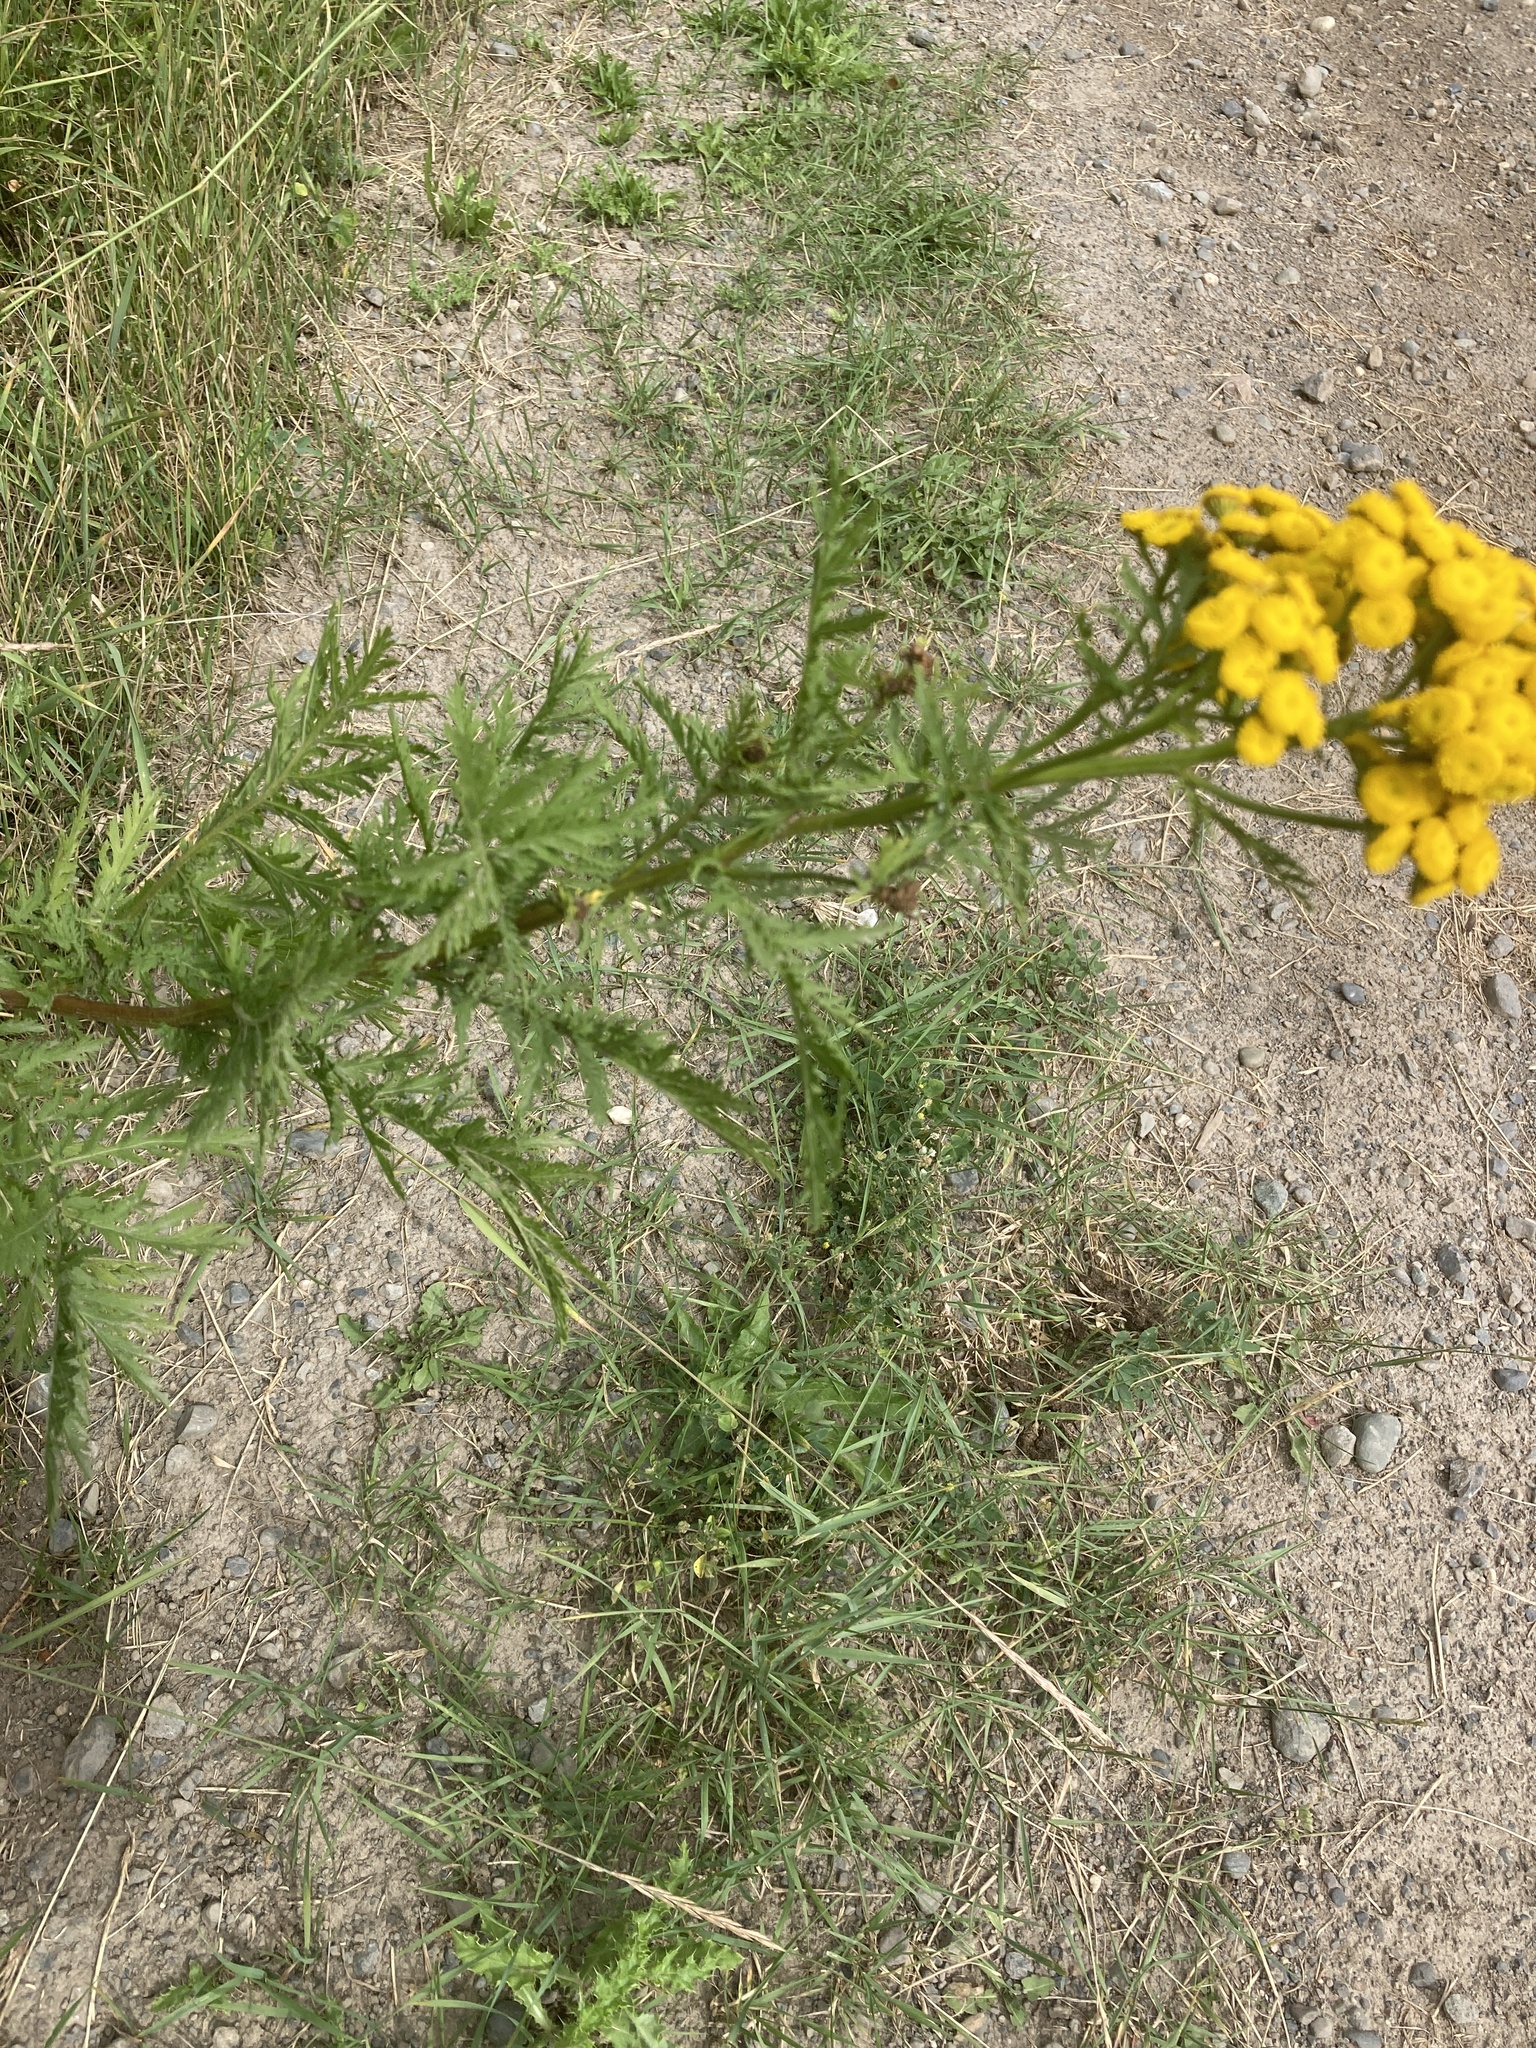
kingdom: Plantae
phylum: Tracheophyta
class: Magnoliopsida
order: Asterales
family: Asteraceae
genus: Tanacetum
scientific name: Tanacetum vulgare
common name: Common tansy
